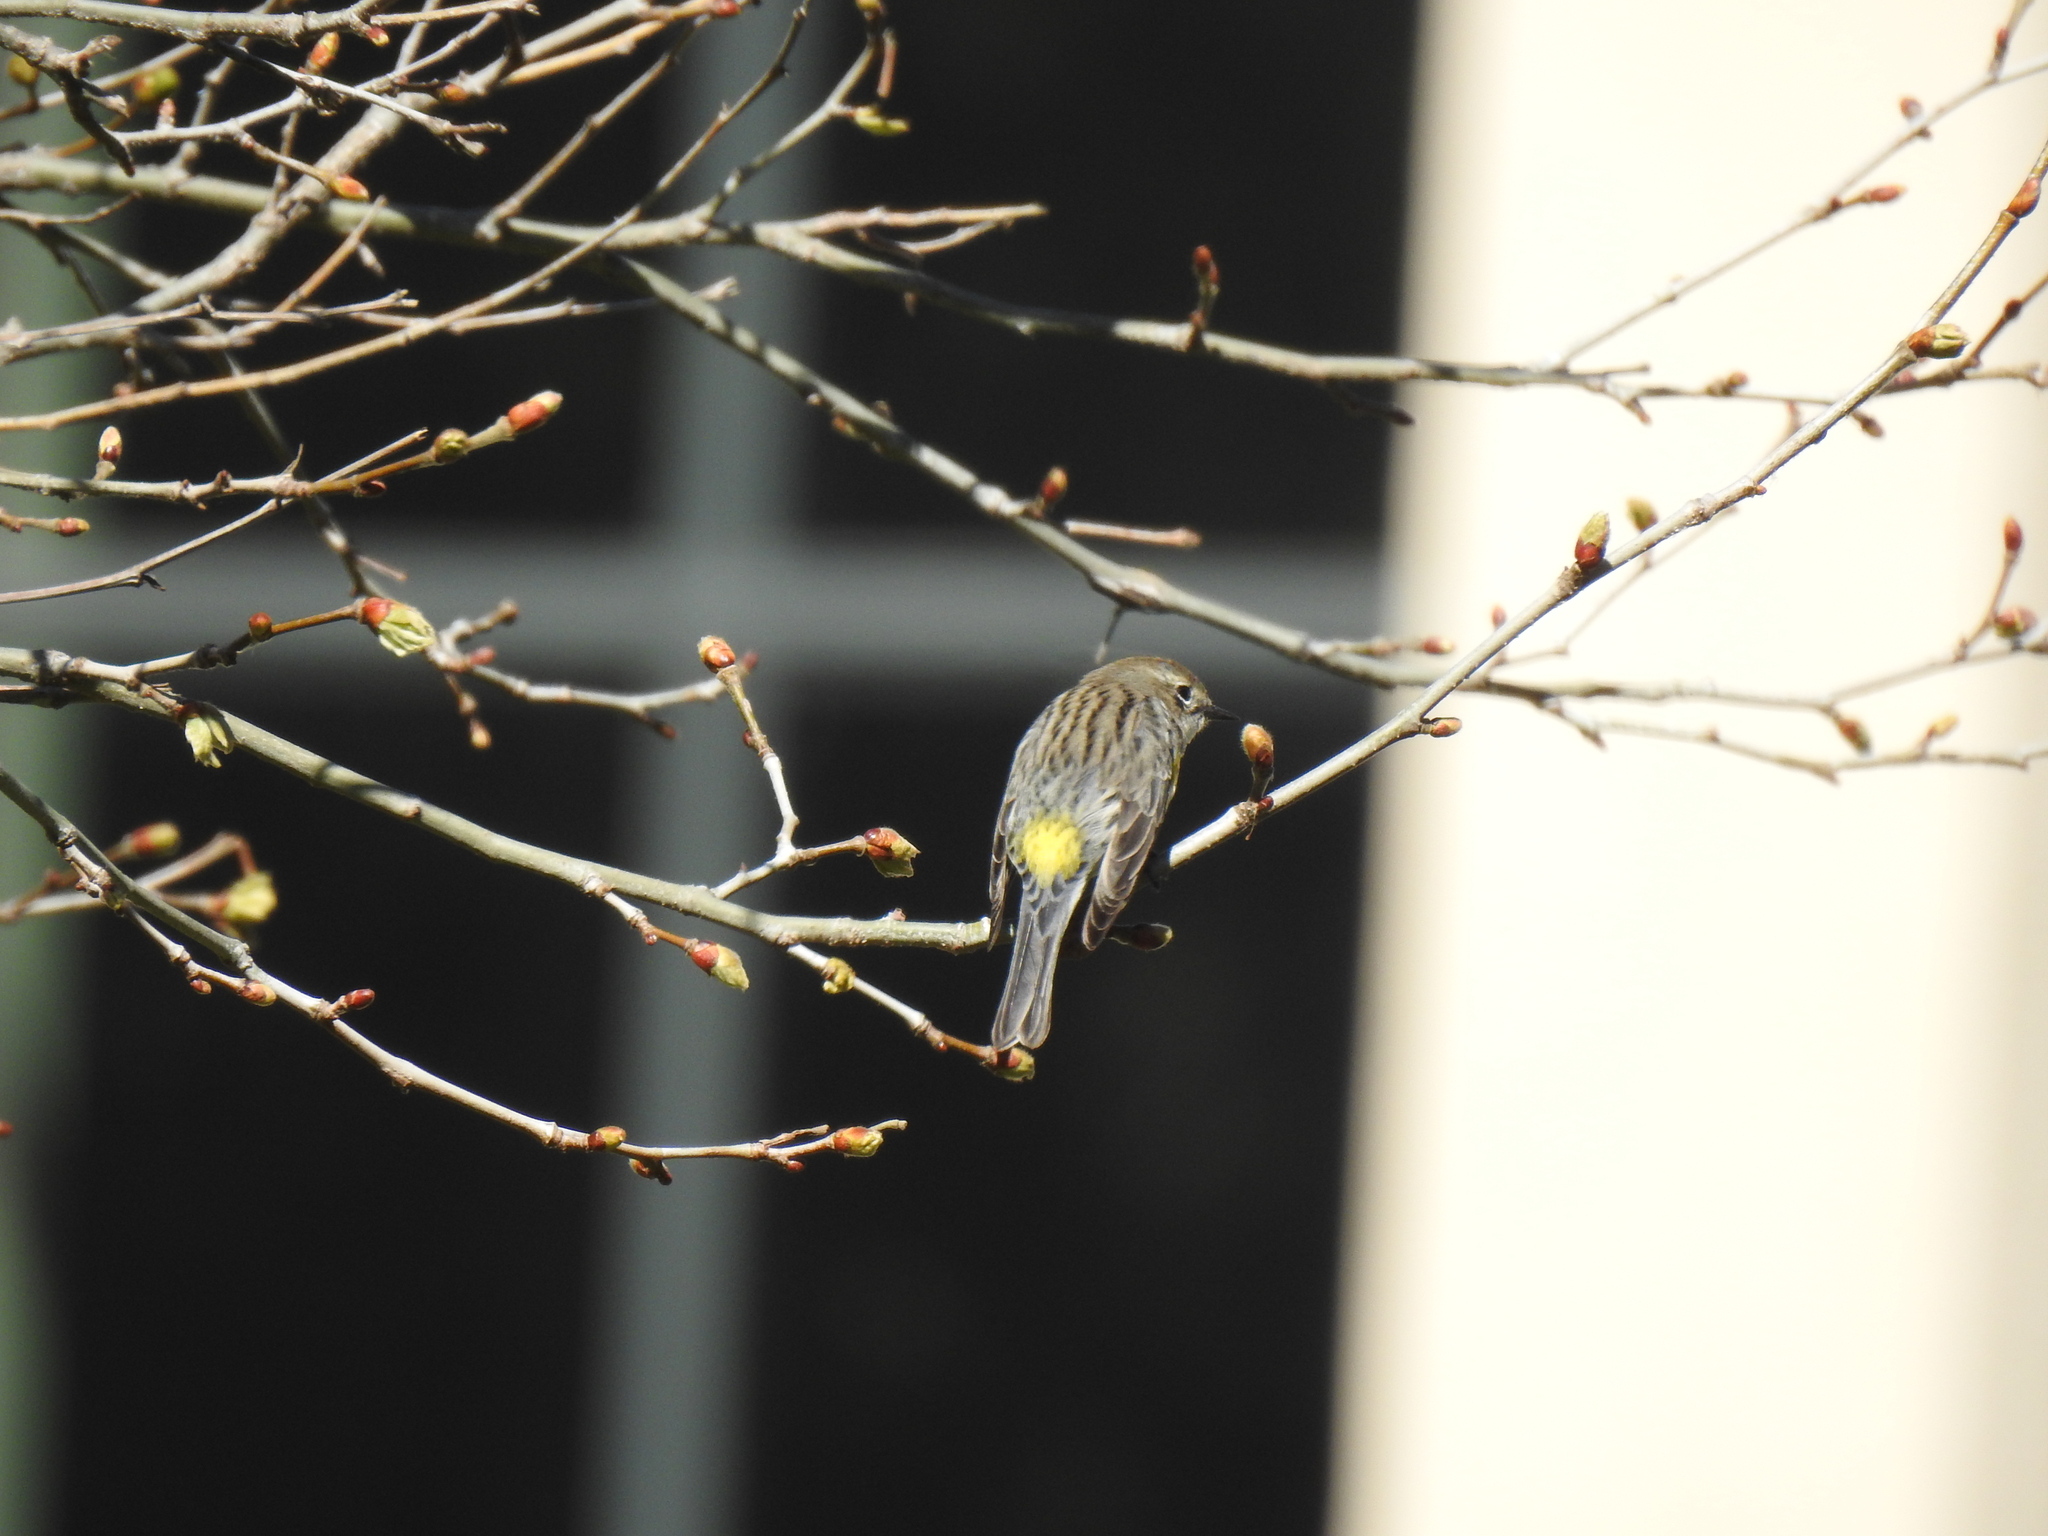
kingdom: Animalia
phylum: Chordata
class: Aves
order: Passeriformes
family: Parulidae
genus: Setophaga
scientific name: Setophaga coronata
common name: Myrtle warbler
